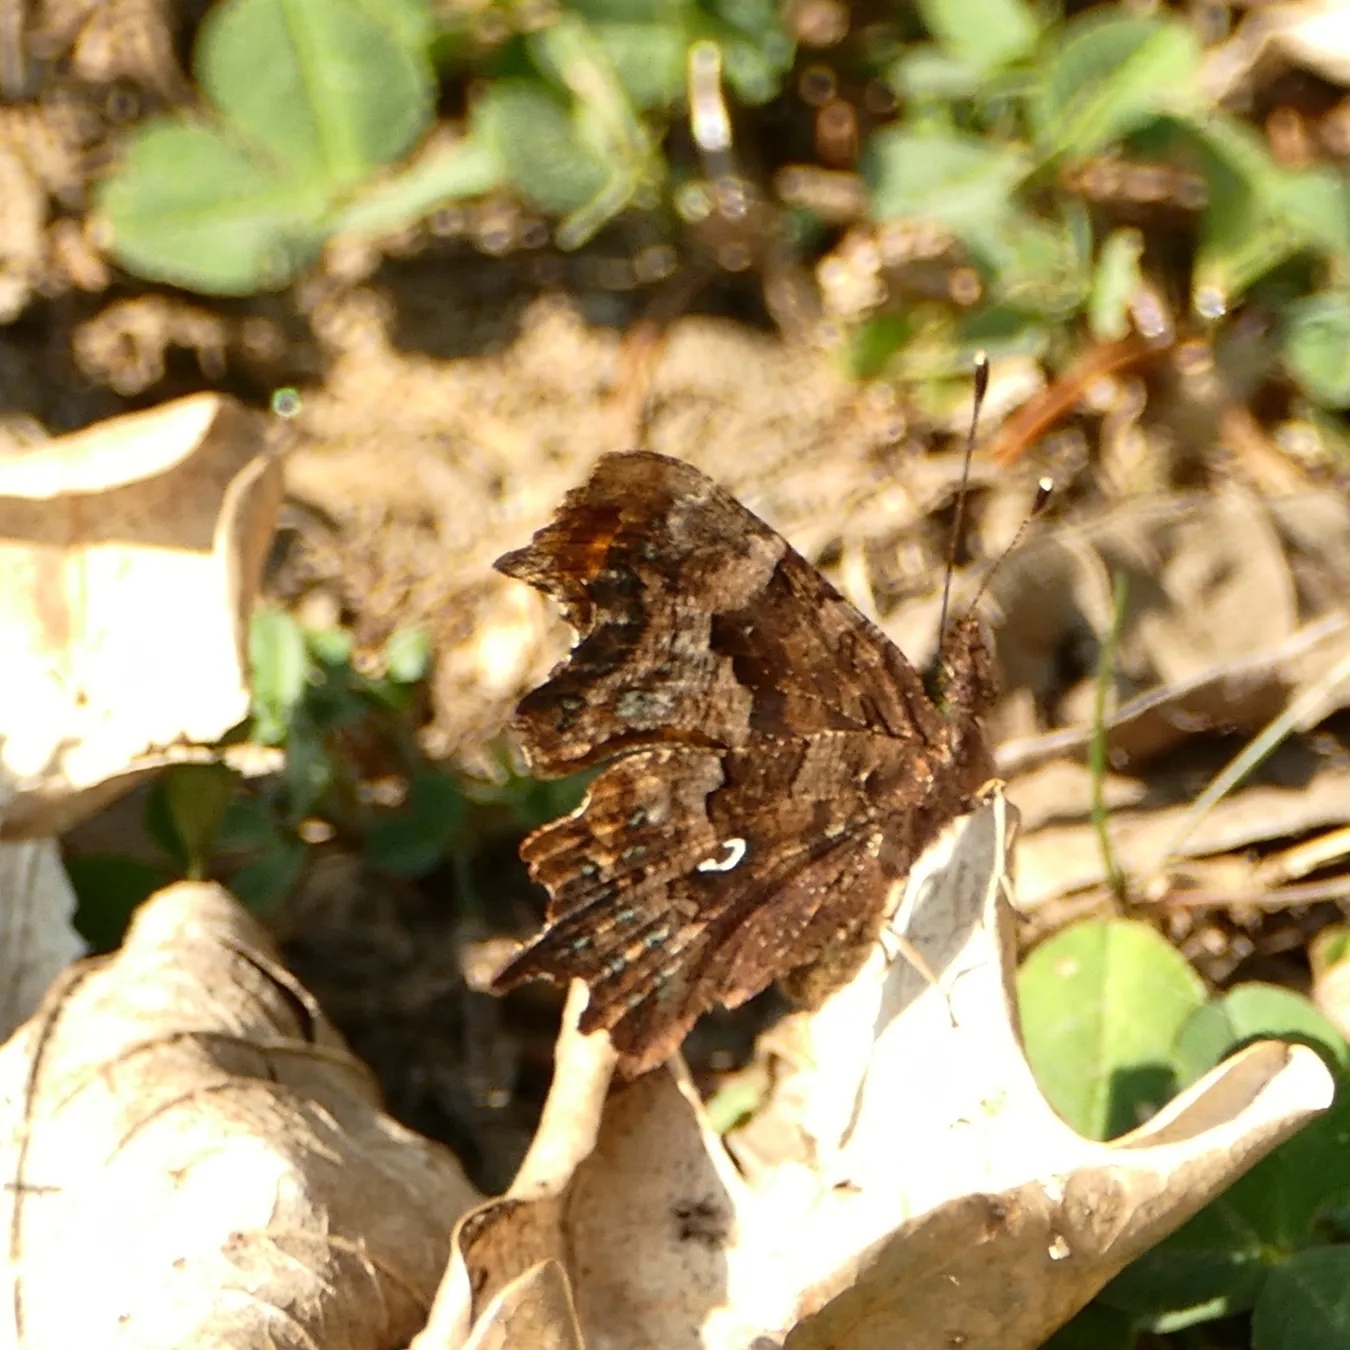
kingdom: Animalia
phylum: Arthropoda
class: Insecta
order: Lepidoptera
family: Nymphalidae
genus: Polygonia
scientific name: Polygonia c-album
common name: Comma
